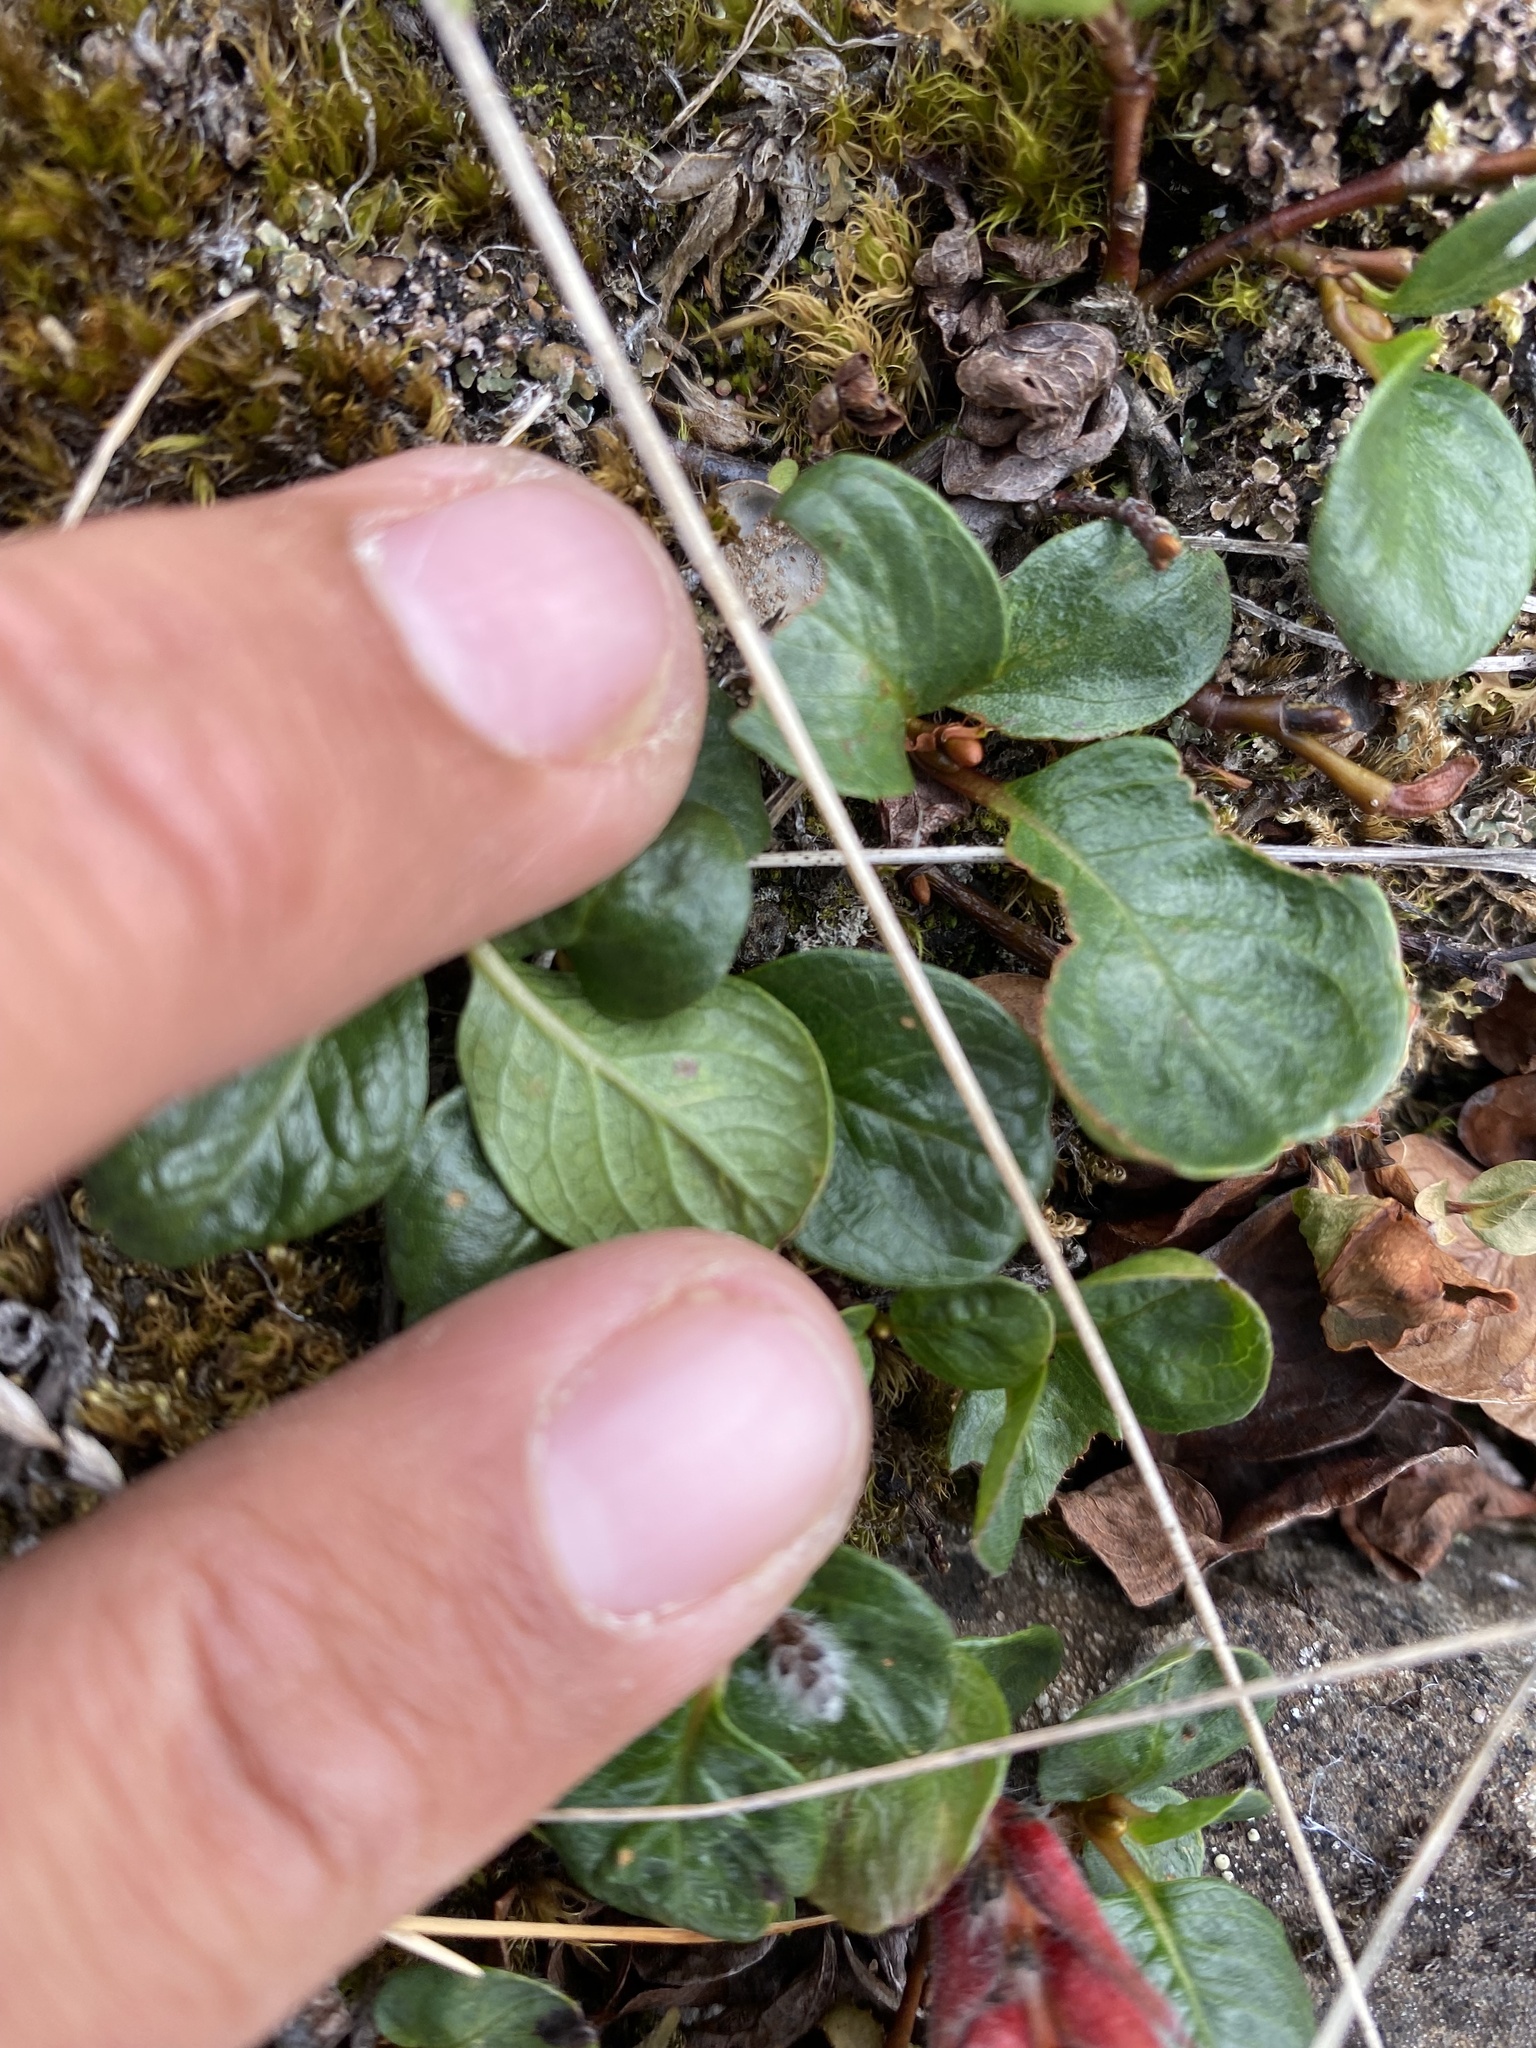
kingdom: Plantae
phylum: Tracheophyta
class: Magnoliopsida
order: Malpighiales
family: Salicaceae
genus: Salix
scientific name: Salix polaris
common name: Polar willow
